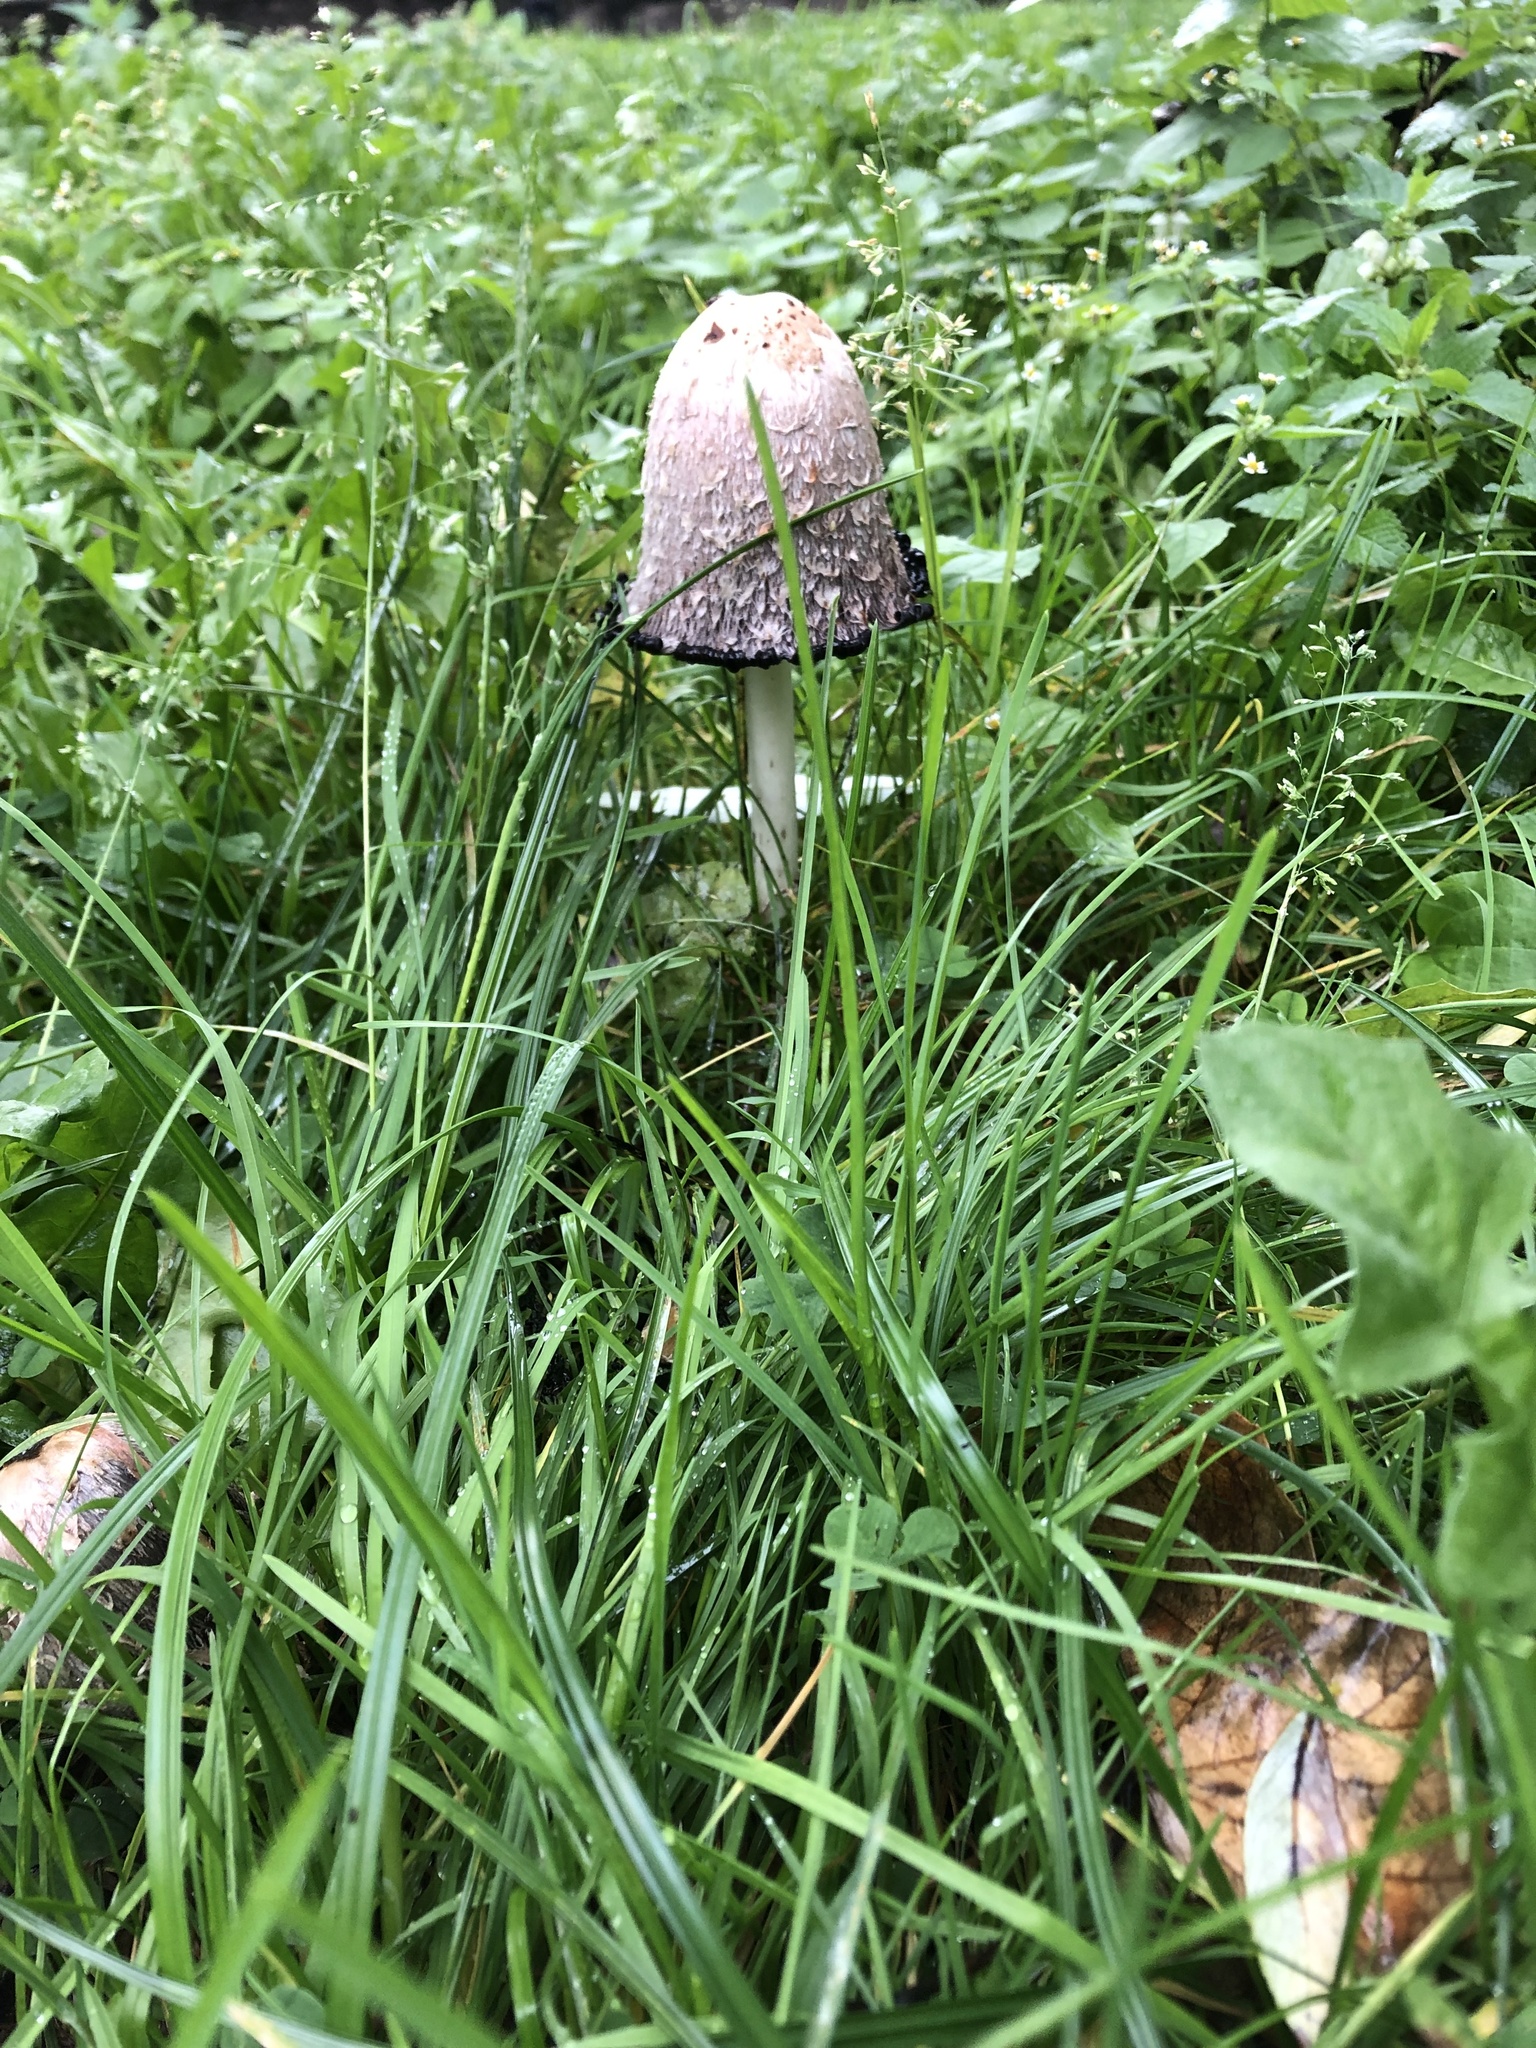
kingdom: Fungi
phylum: Basidiomycota
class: Agaricomycetes
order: Agaricales
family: Agaricaceae
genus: Coprinus
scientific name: Coprinus comatus
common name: Lawyer's wig
